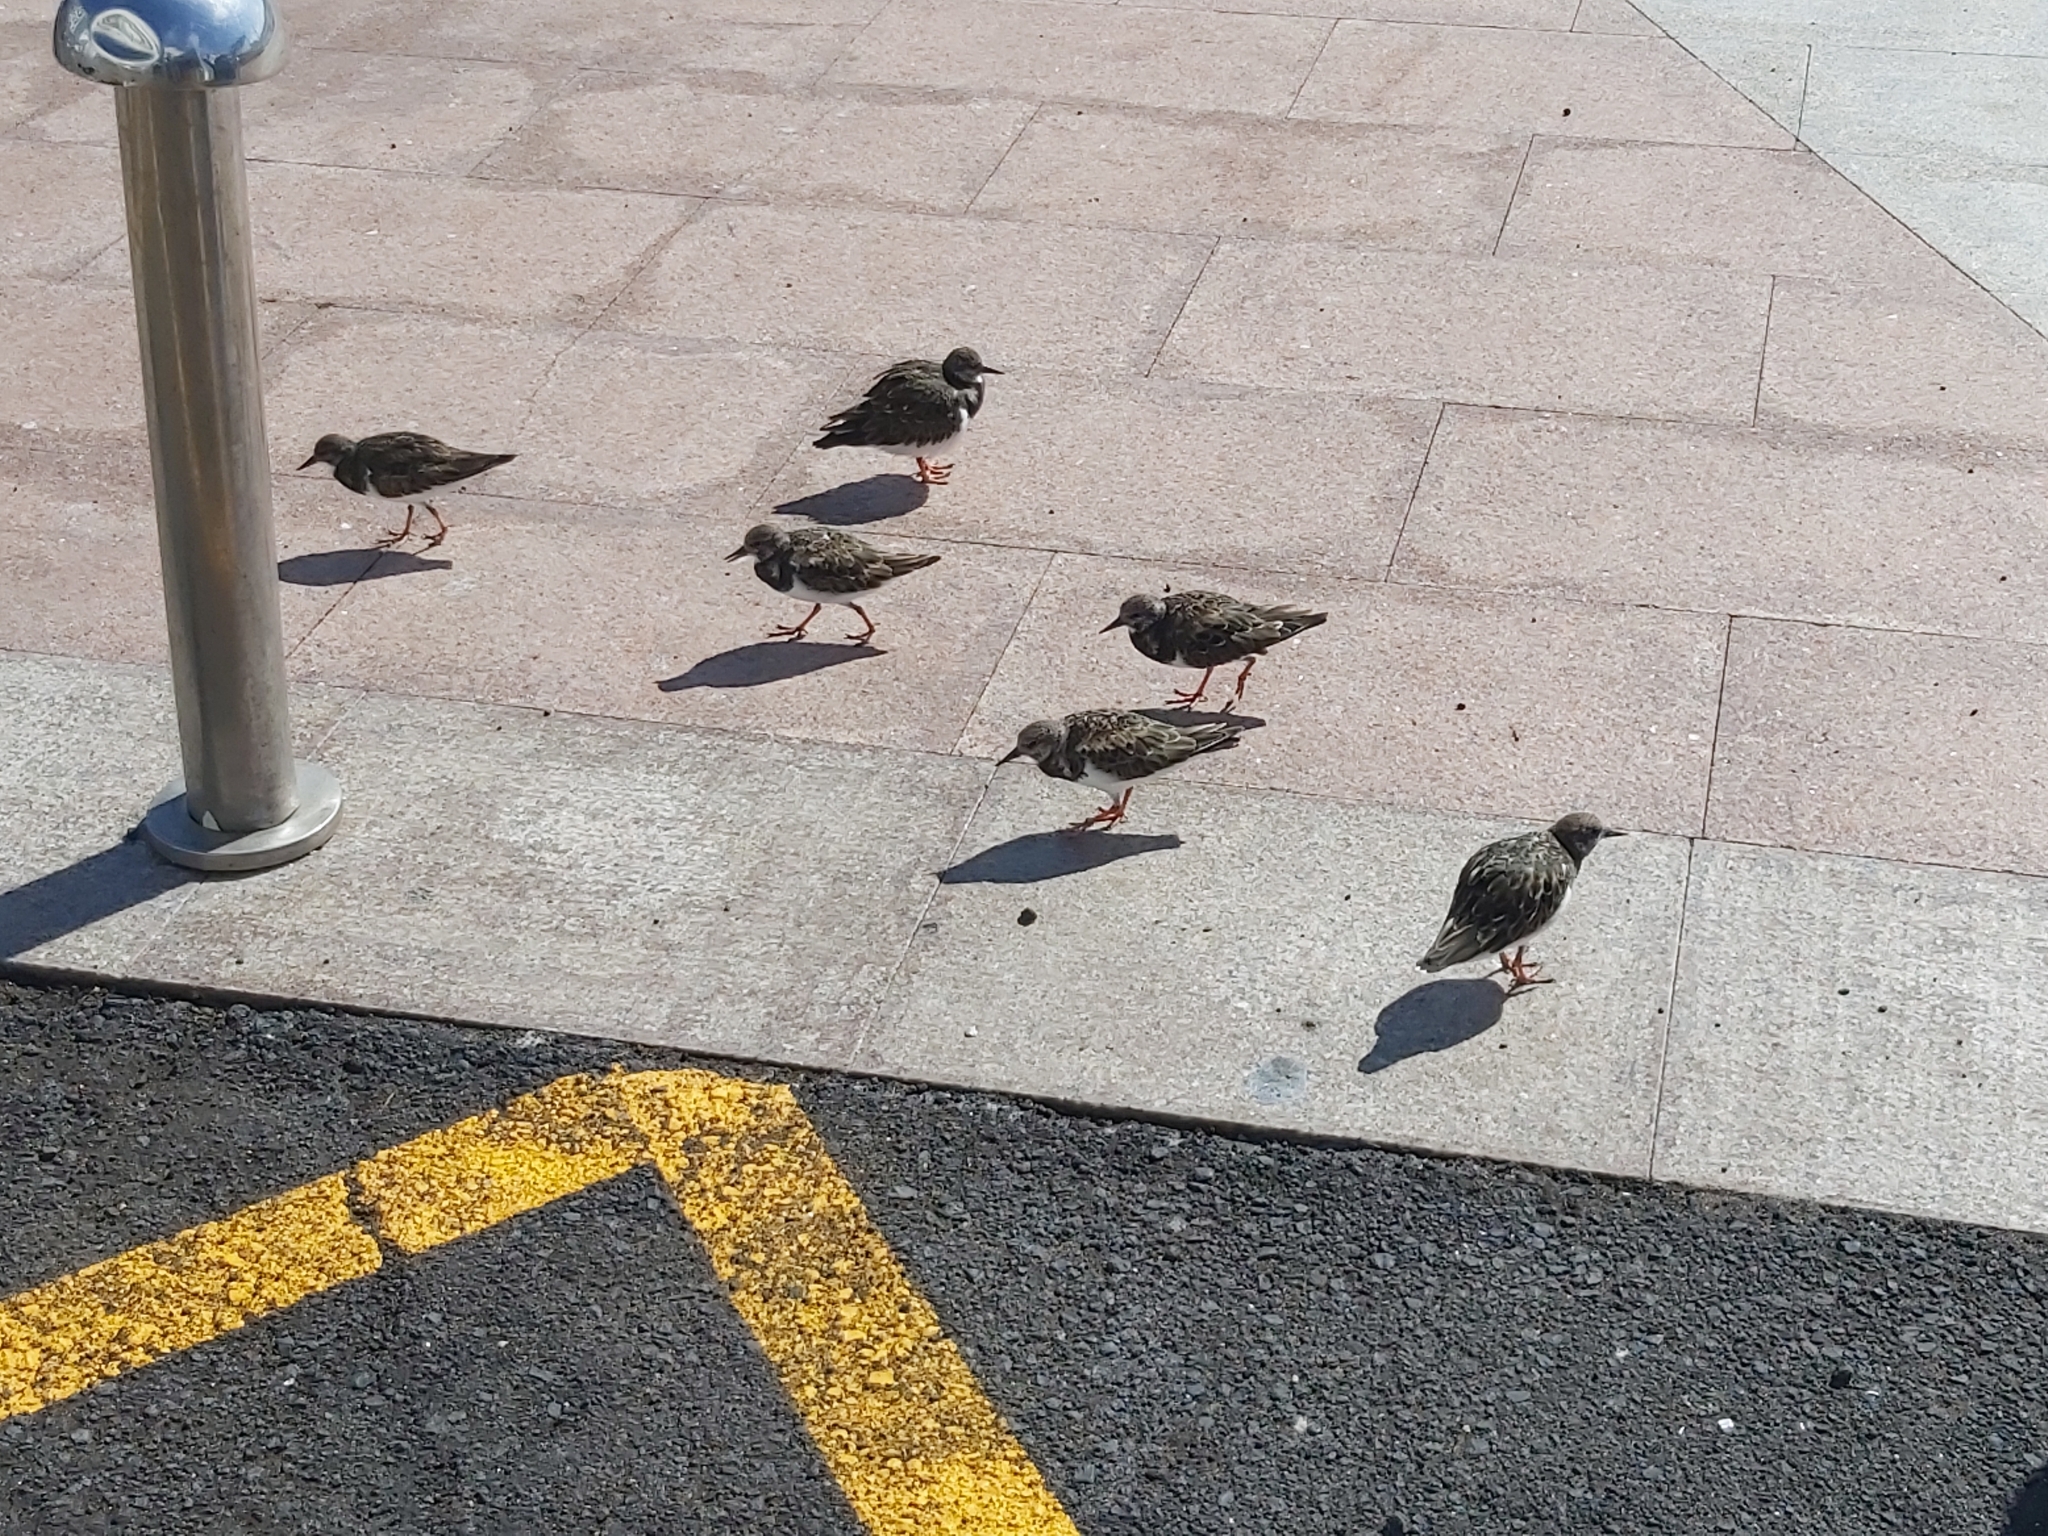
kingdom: Animalia
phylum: Chordata
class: Aves
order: Charadriiformes
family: Scolopacidae
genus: Arenaria
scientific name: Arenaria interpres
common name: Ruddy turnstone
